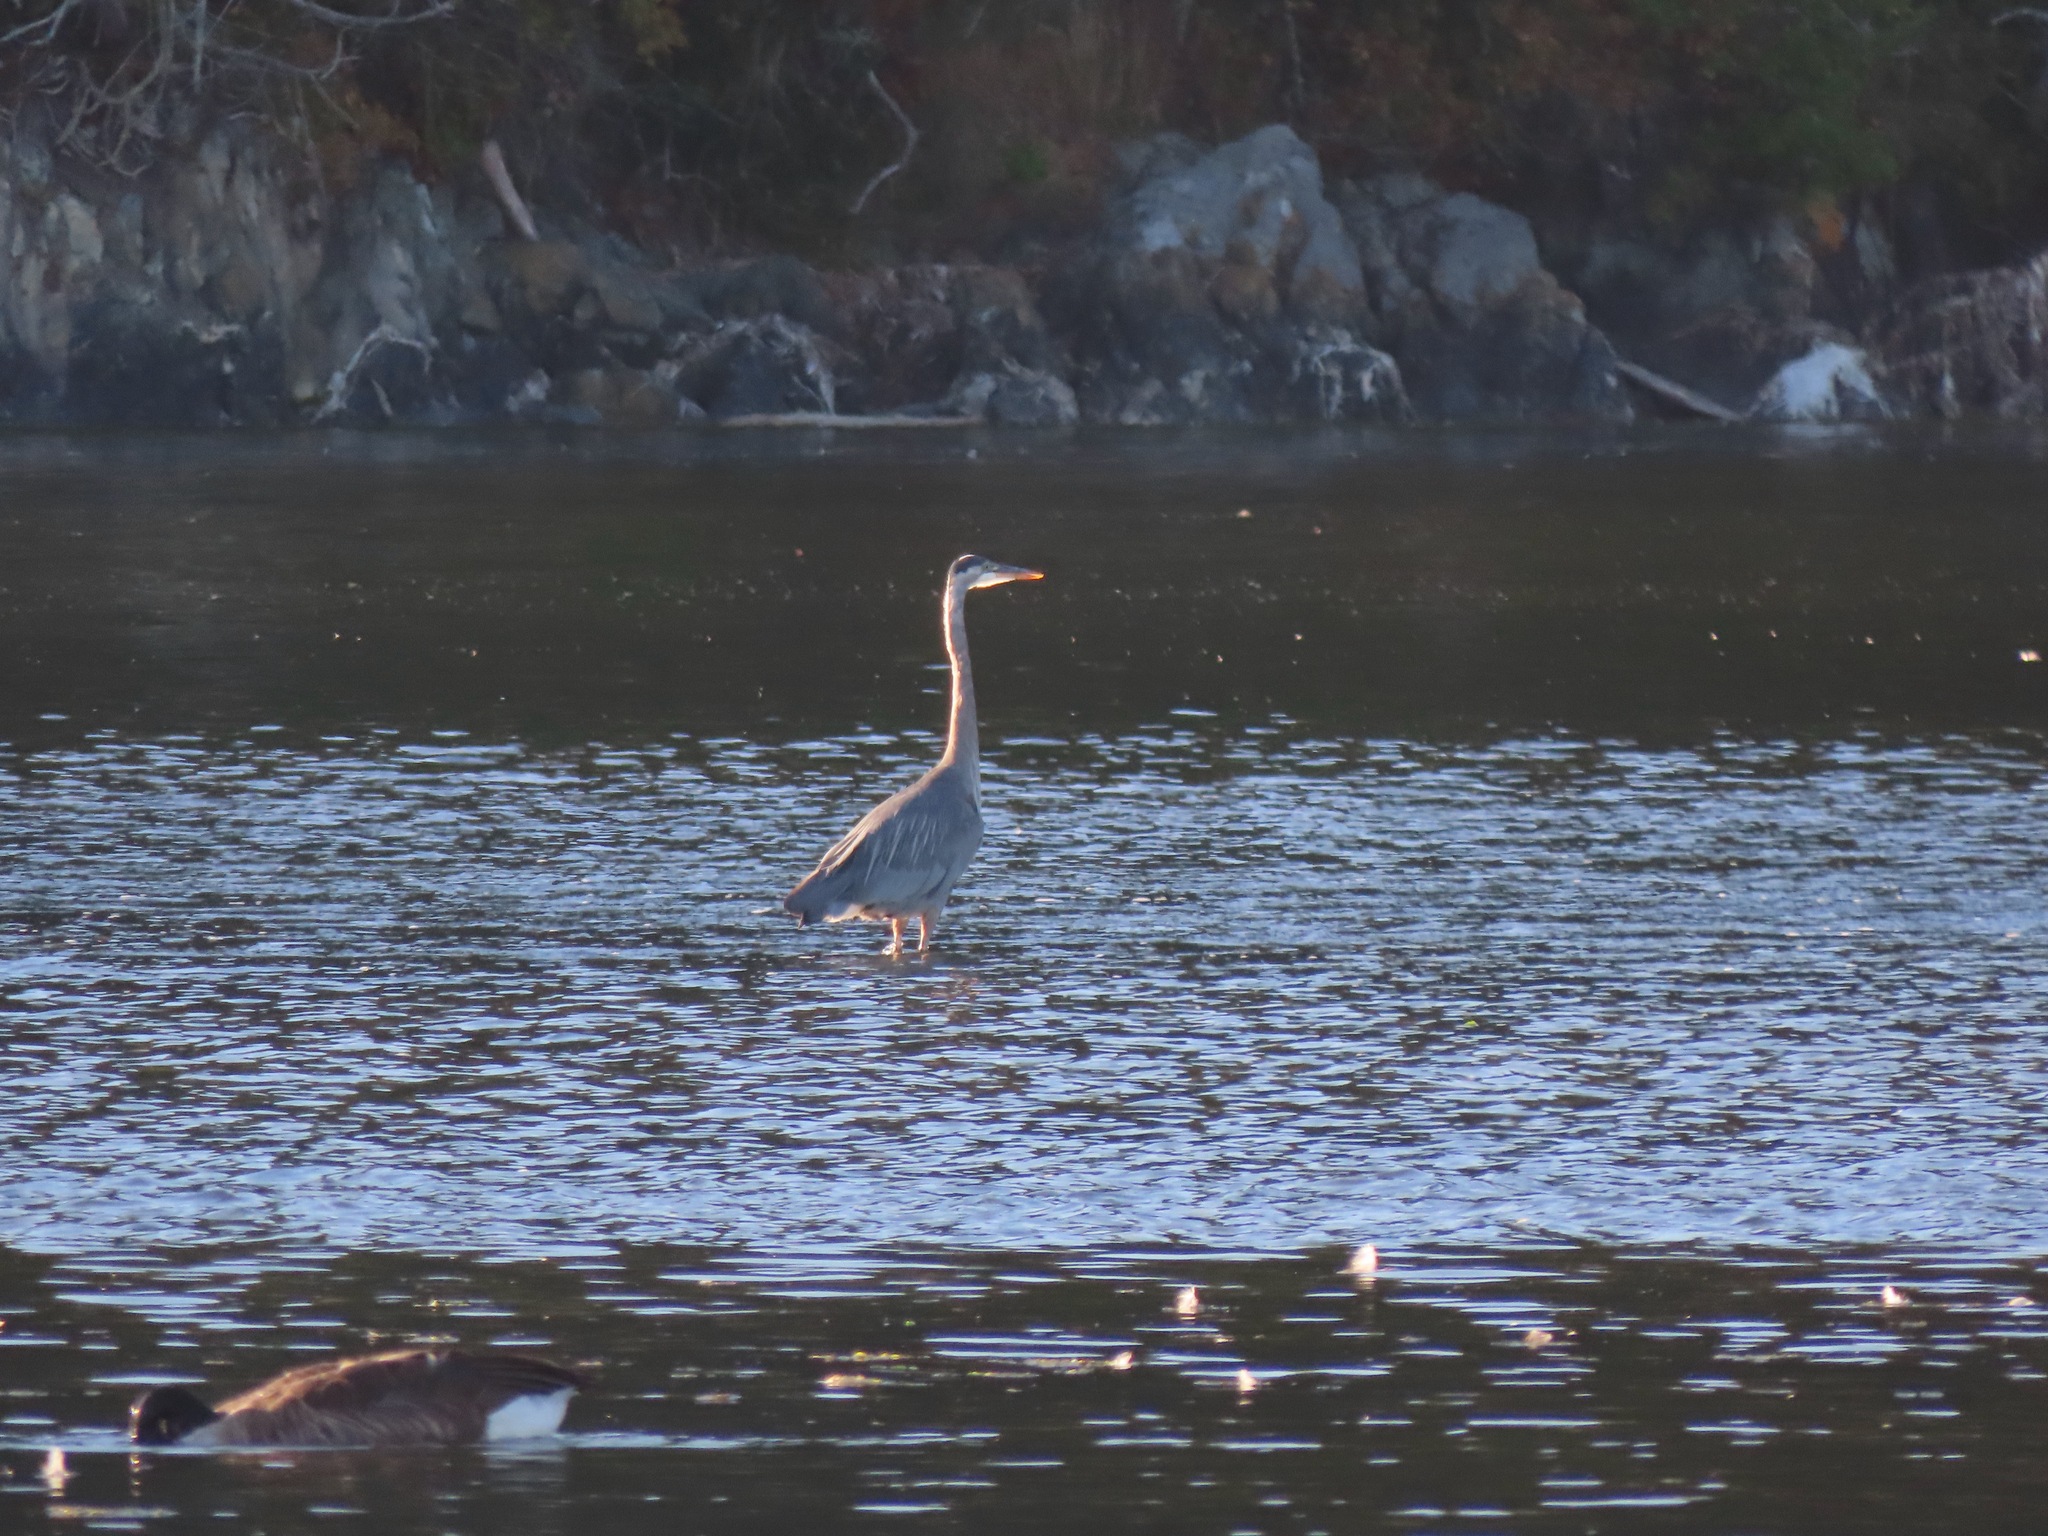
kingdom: Animalia
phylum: Chordata
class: Aves
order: Pelecaniformes
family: Ardeidae
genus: Ardea
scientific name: Ardea herodias
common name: Great blue heron
